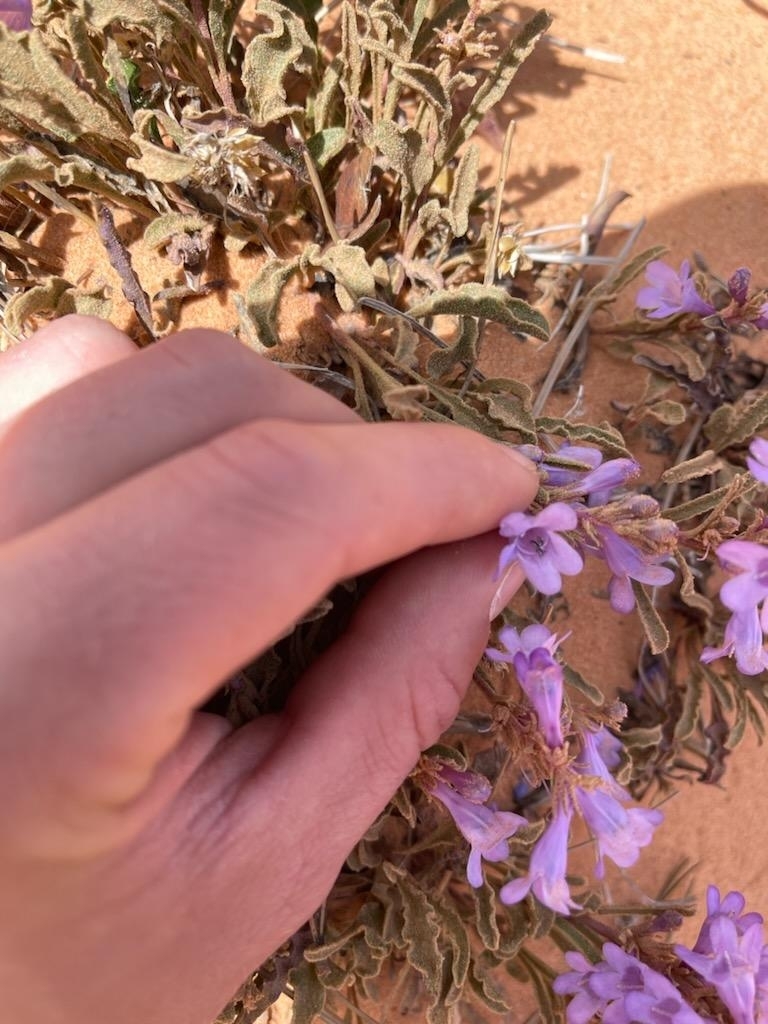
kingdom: Plantae
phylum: Tracheophyta
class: Magnoliopsida
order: Lamiales
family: Plantaginaceae
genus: Penstemon
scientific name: Penstemon ammophilus
